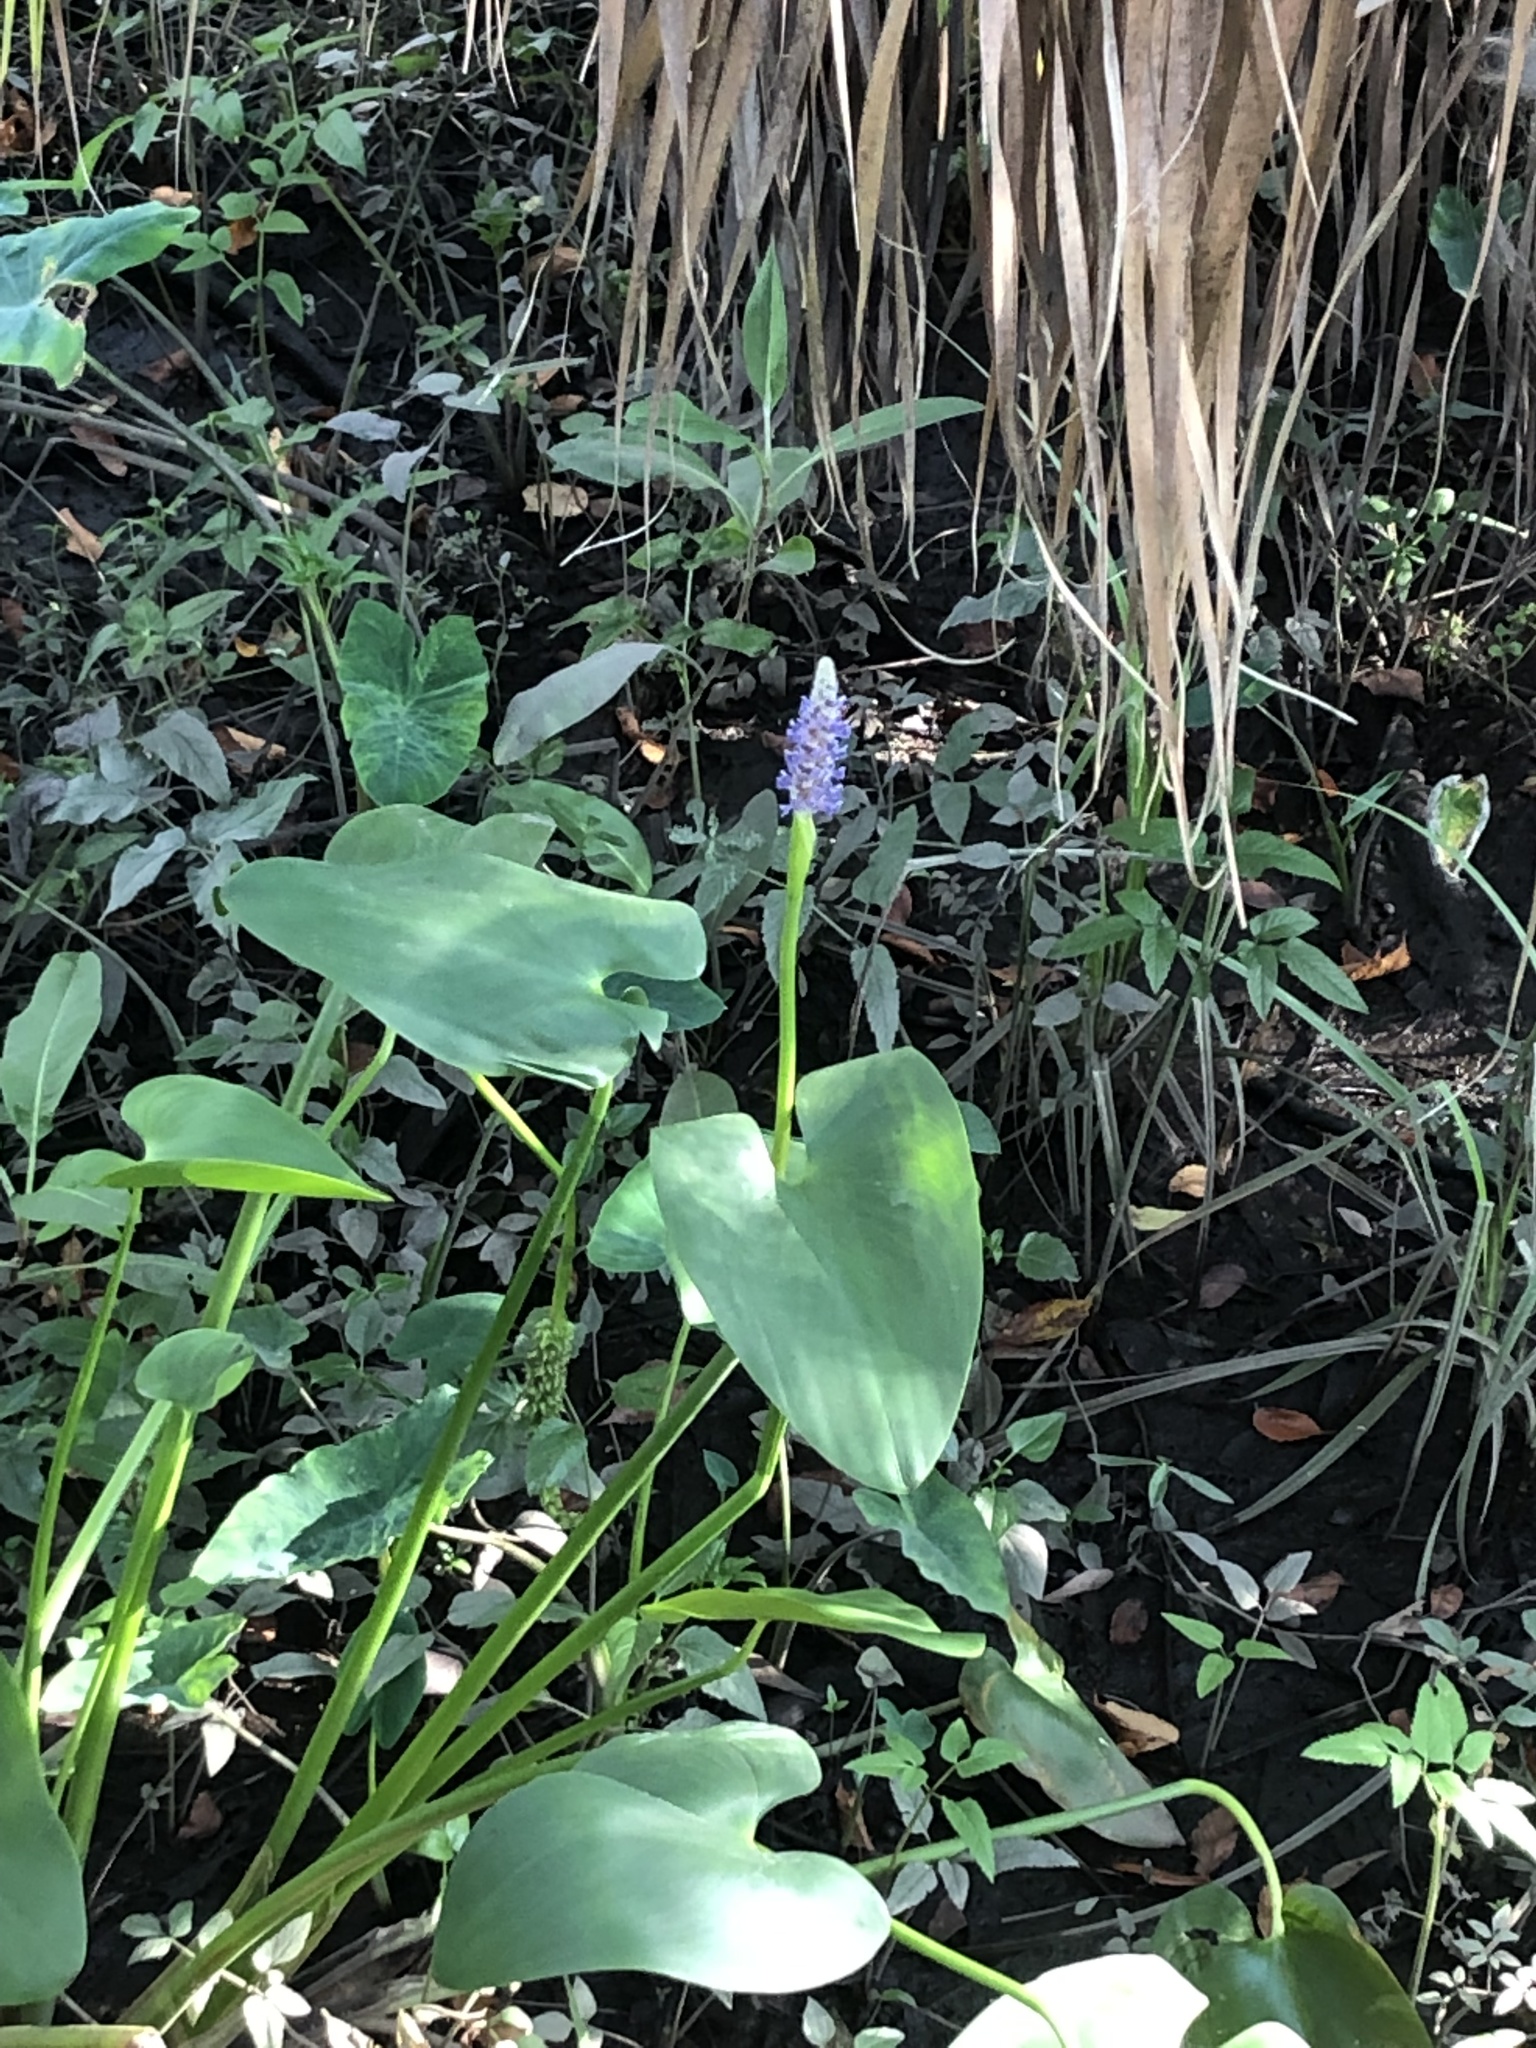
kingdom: Plantae
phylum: Tracheophyta
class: Liliopsida
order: Commelinales
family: Pontederiaceae
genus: Pontederia
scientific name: Pontederia cordata
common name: Pickerelweed
